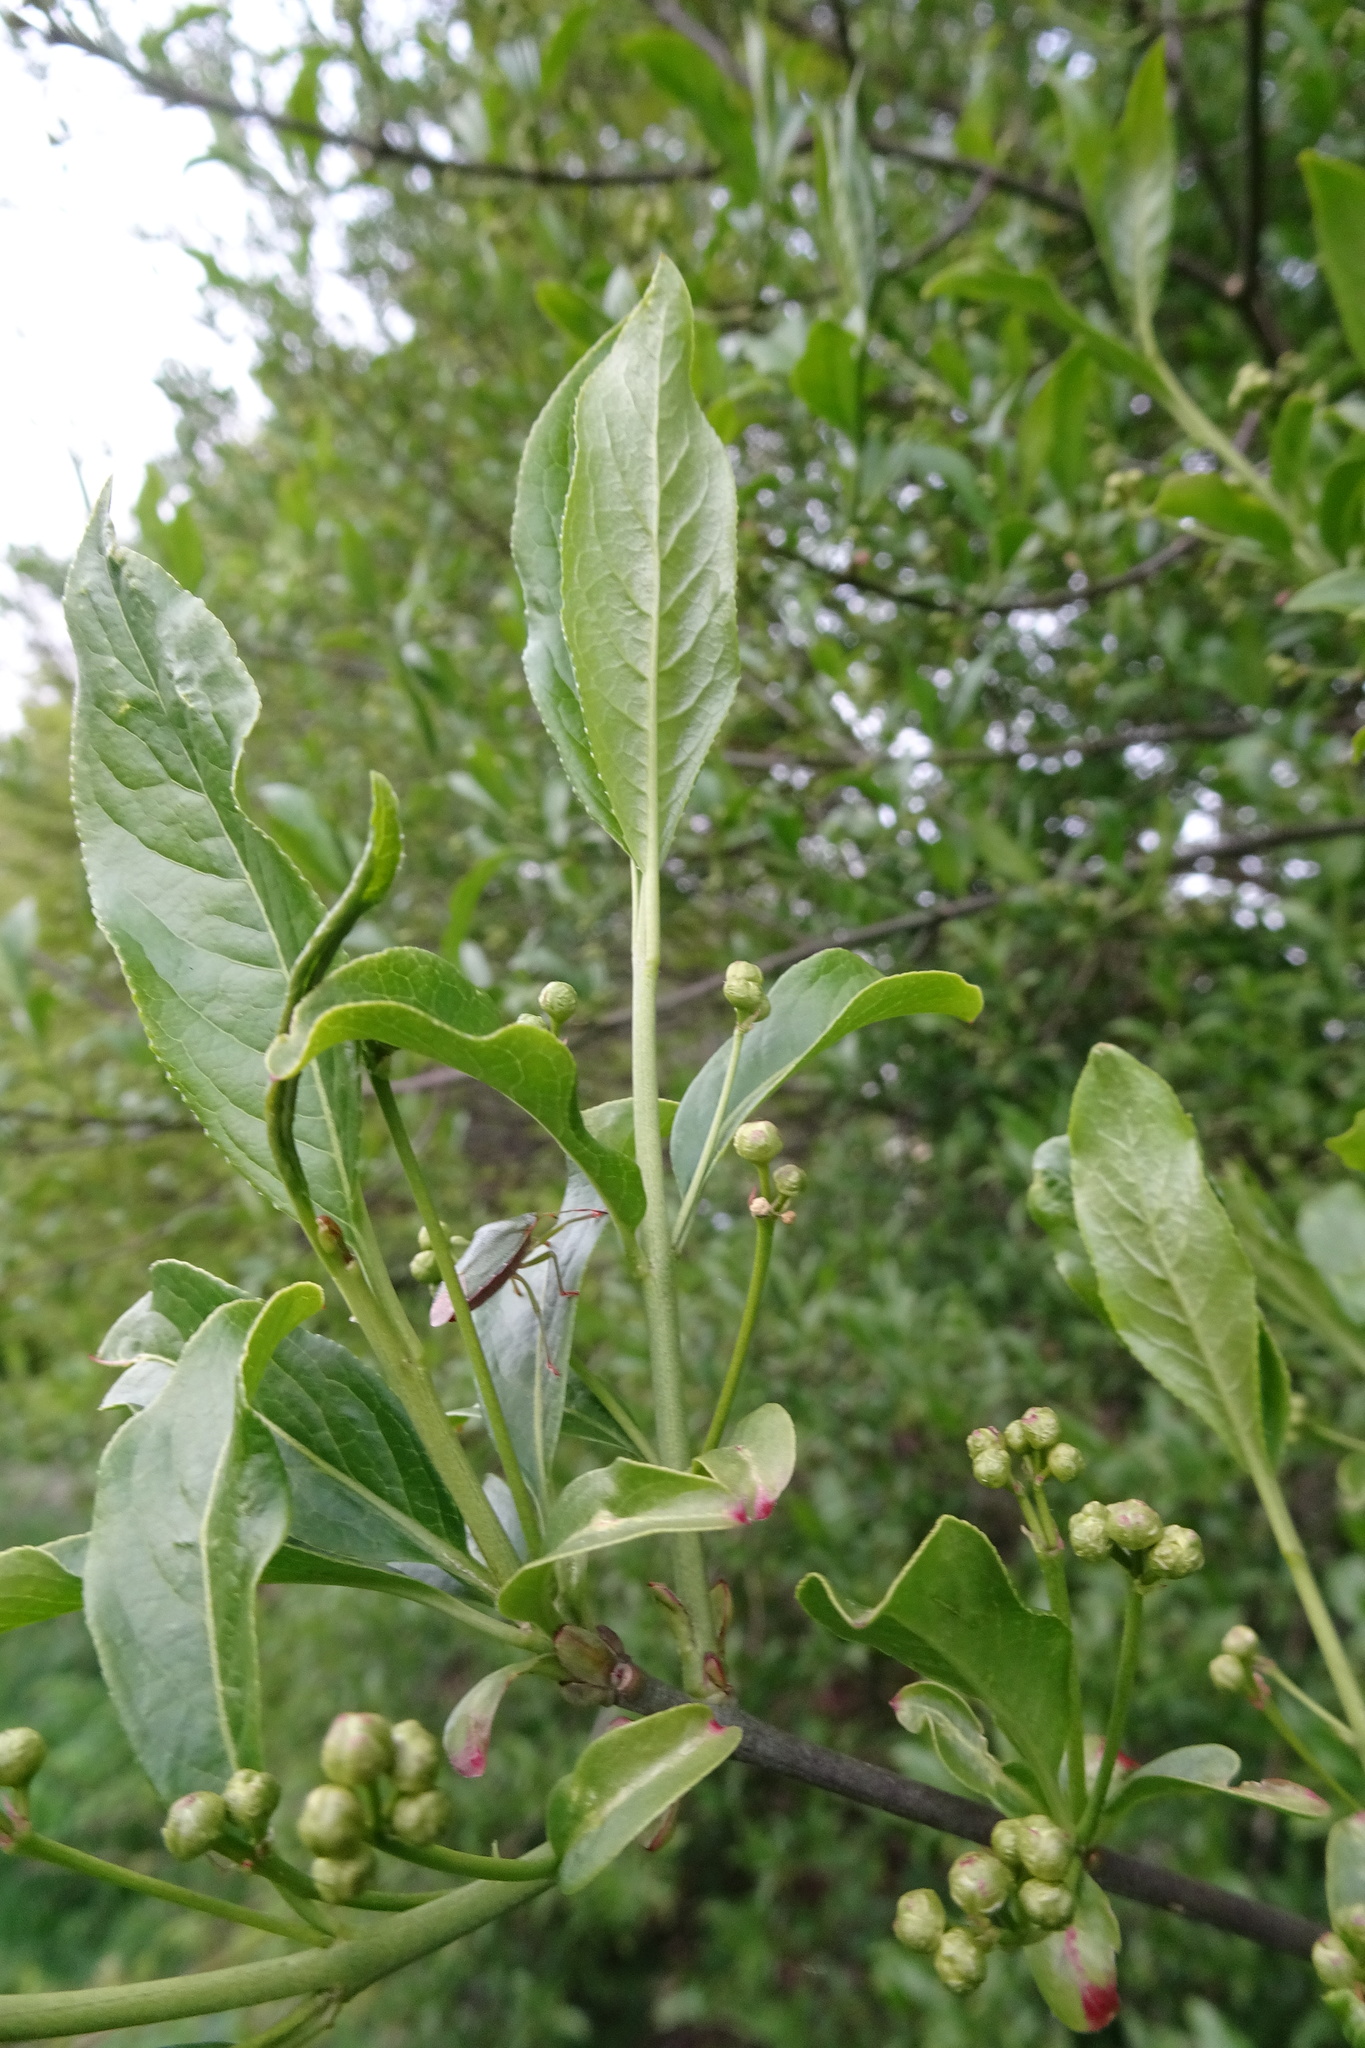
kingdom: Plantae
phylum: Tracheophyta
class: Magnoliopsida
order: Celastrales
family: Celastraceae
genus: Euonymus
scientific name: Euonymus europaeus
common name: Spindle
